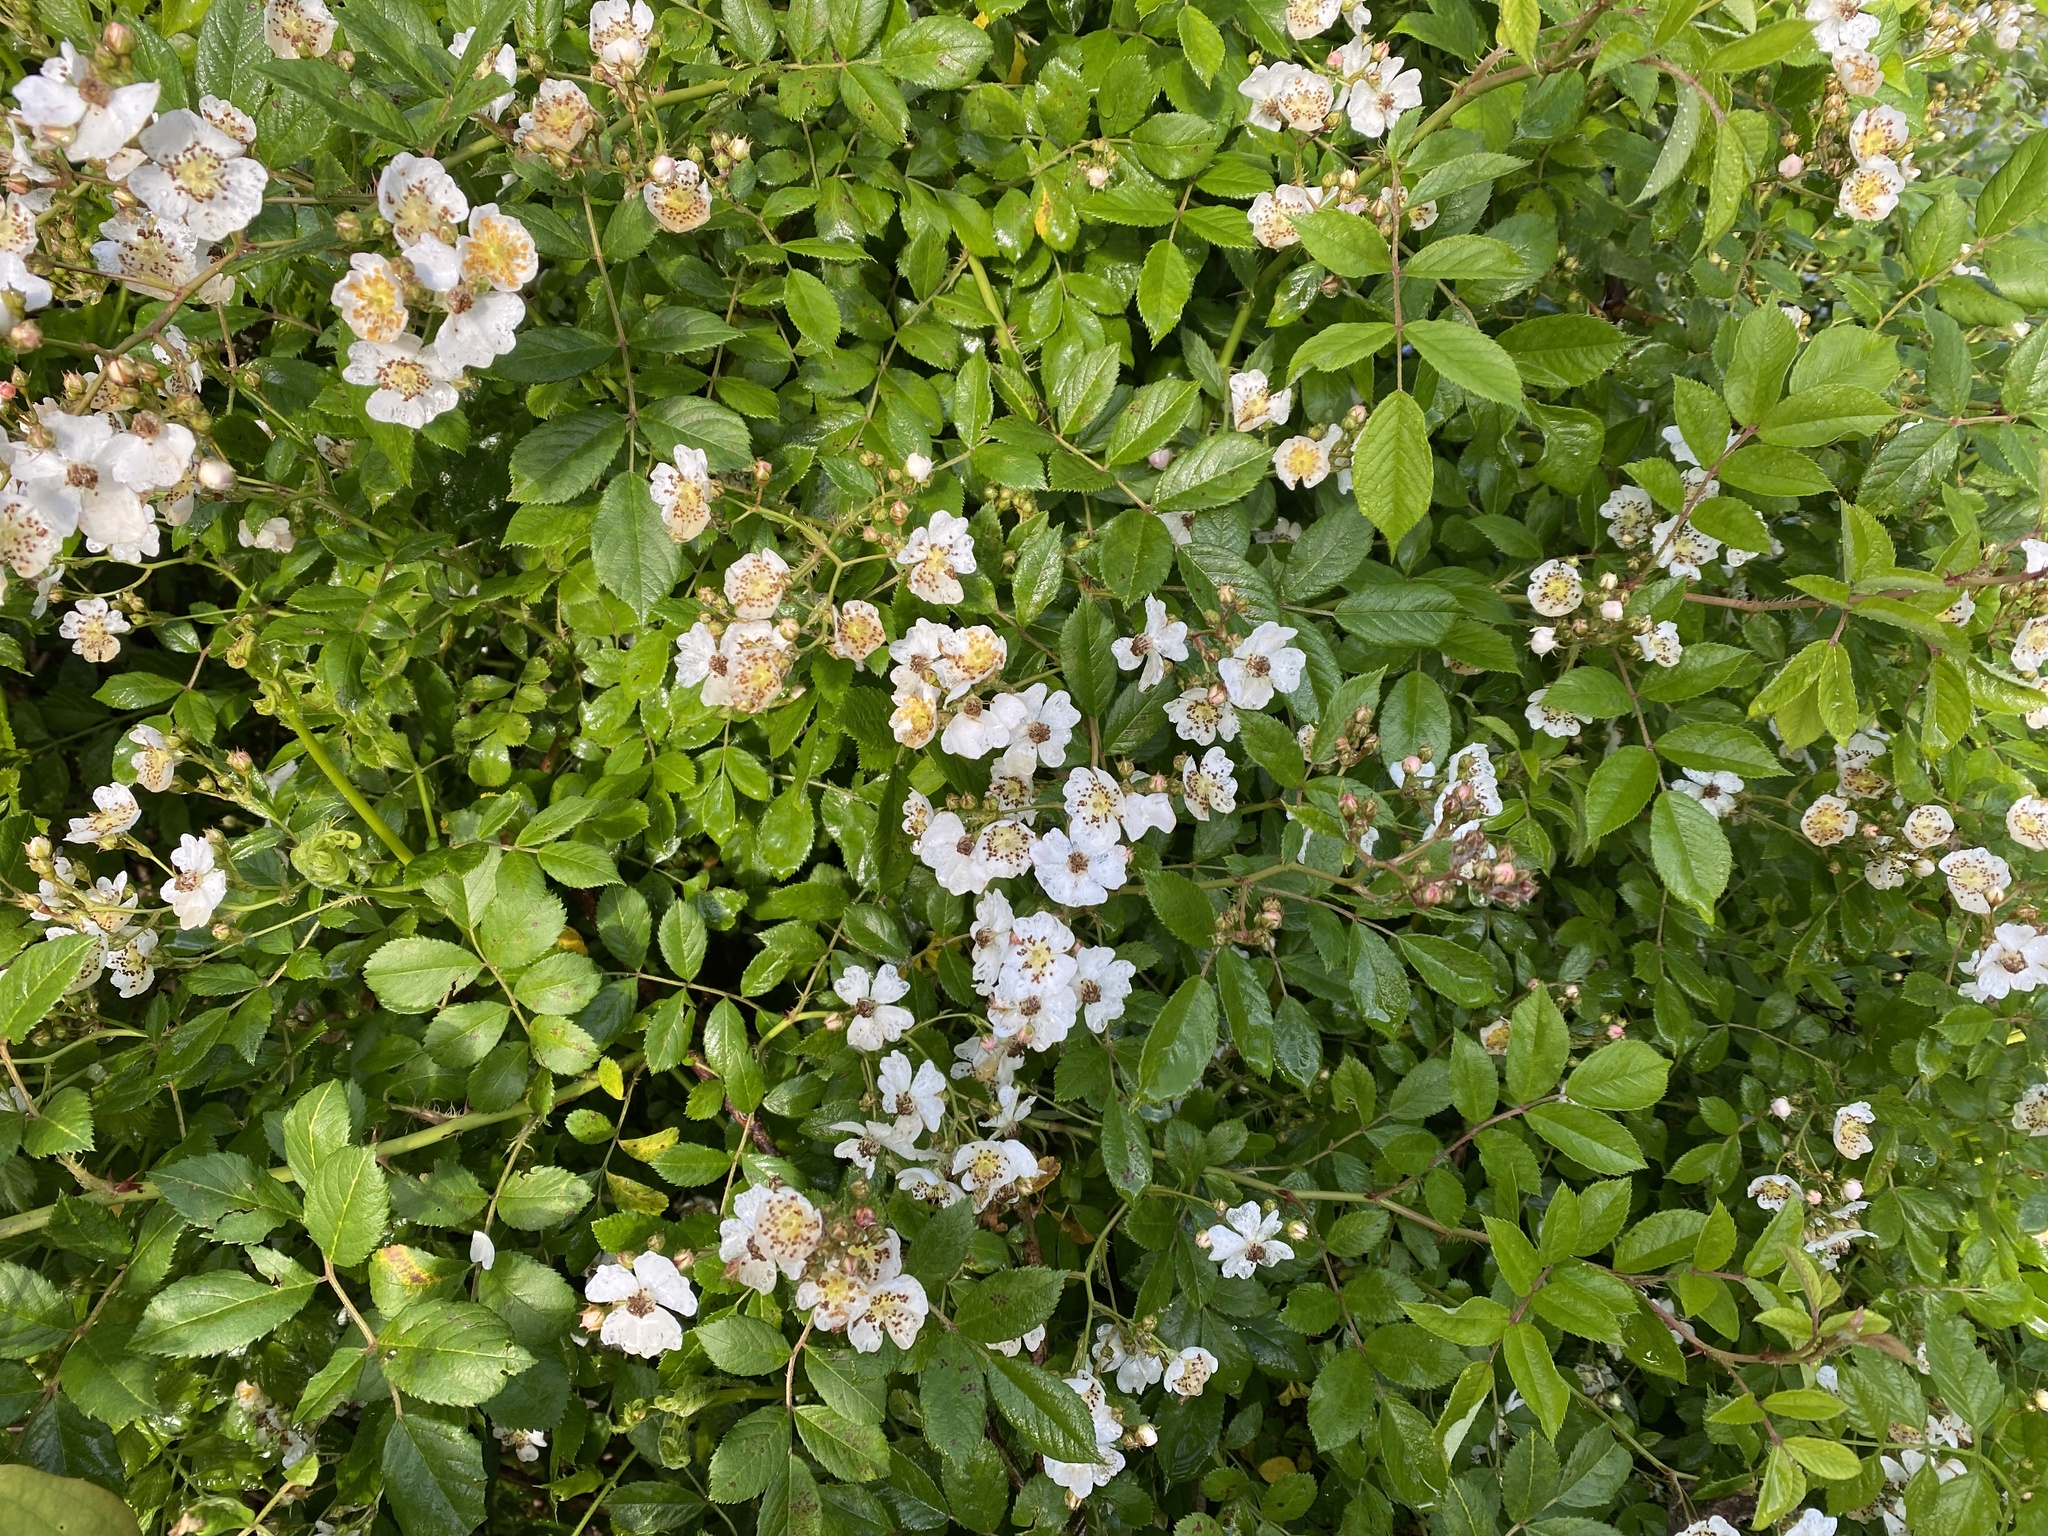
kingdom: Plantae
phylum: Tracheophyta
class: Magnoliopsida
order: Rosales
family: Rosaceae
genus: Rosa
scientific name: Rosa multiflora
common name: Multiflora rose
